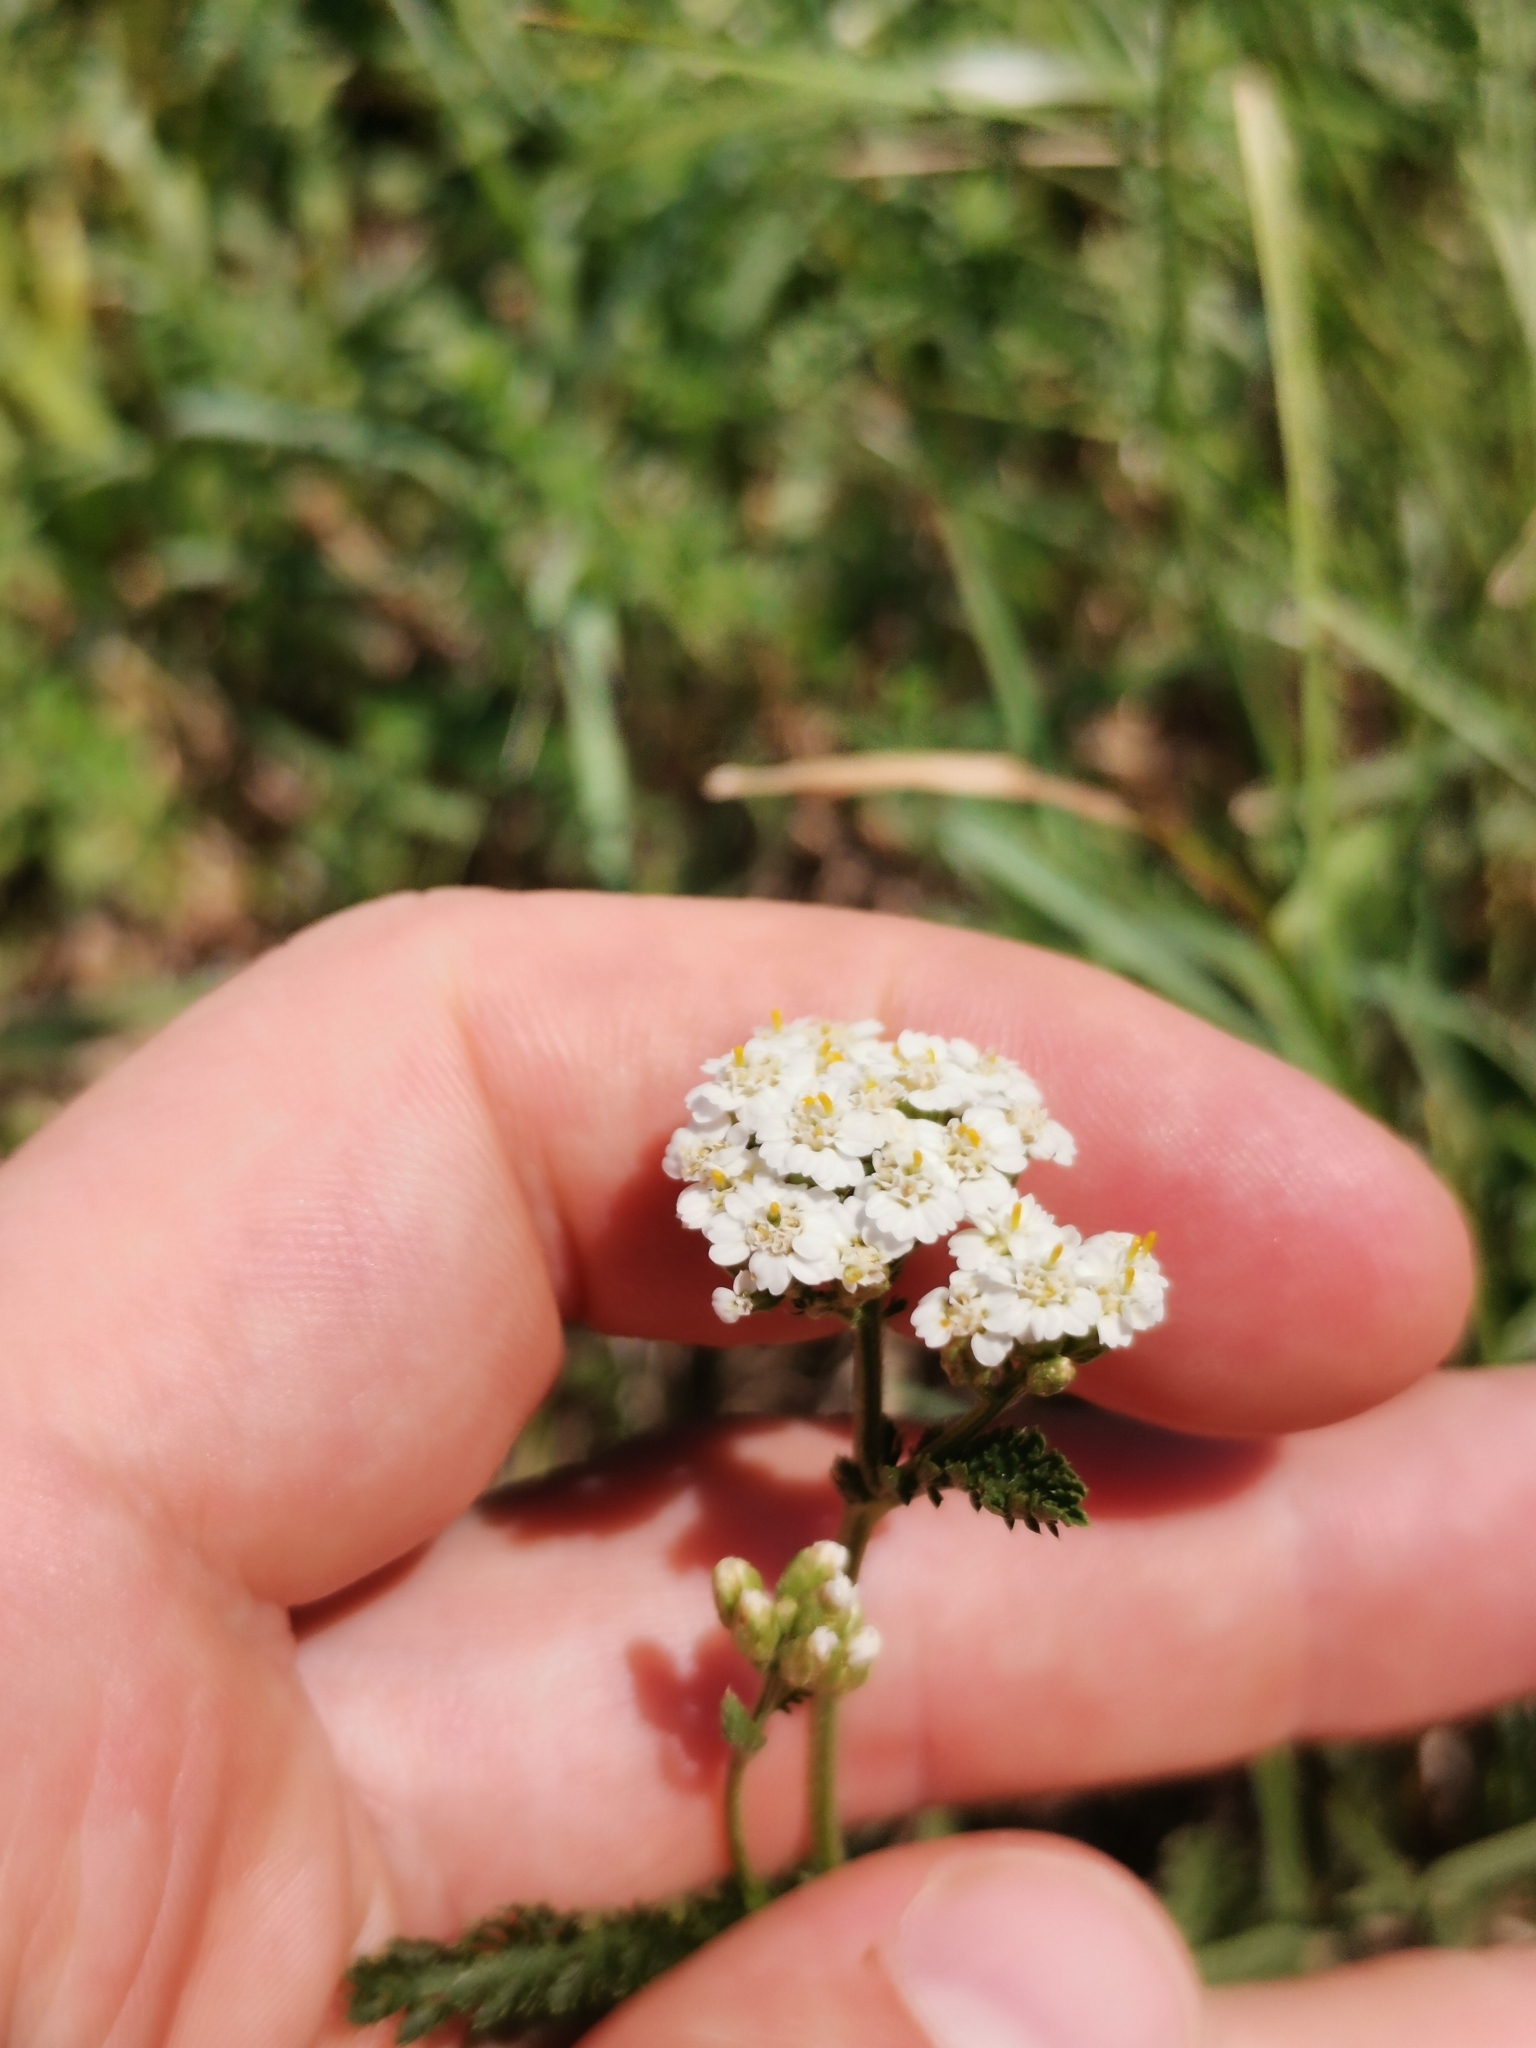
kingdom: Plantae
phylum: Tracheophyta
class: Magnoliopsida
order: Asterales
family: Asteraceae
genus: Achillea
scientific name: Achillea collina
